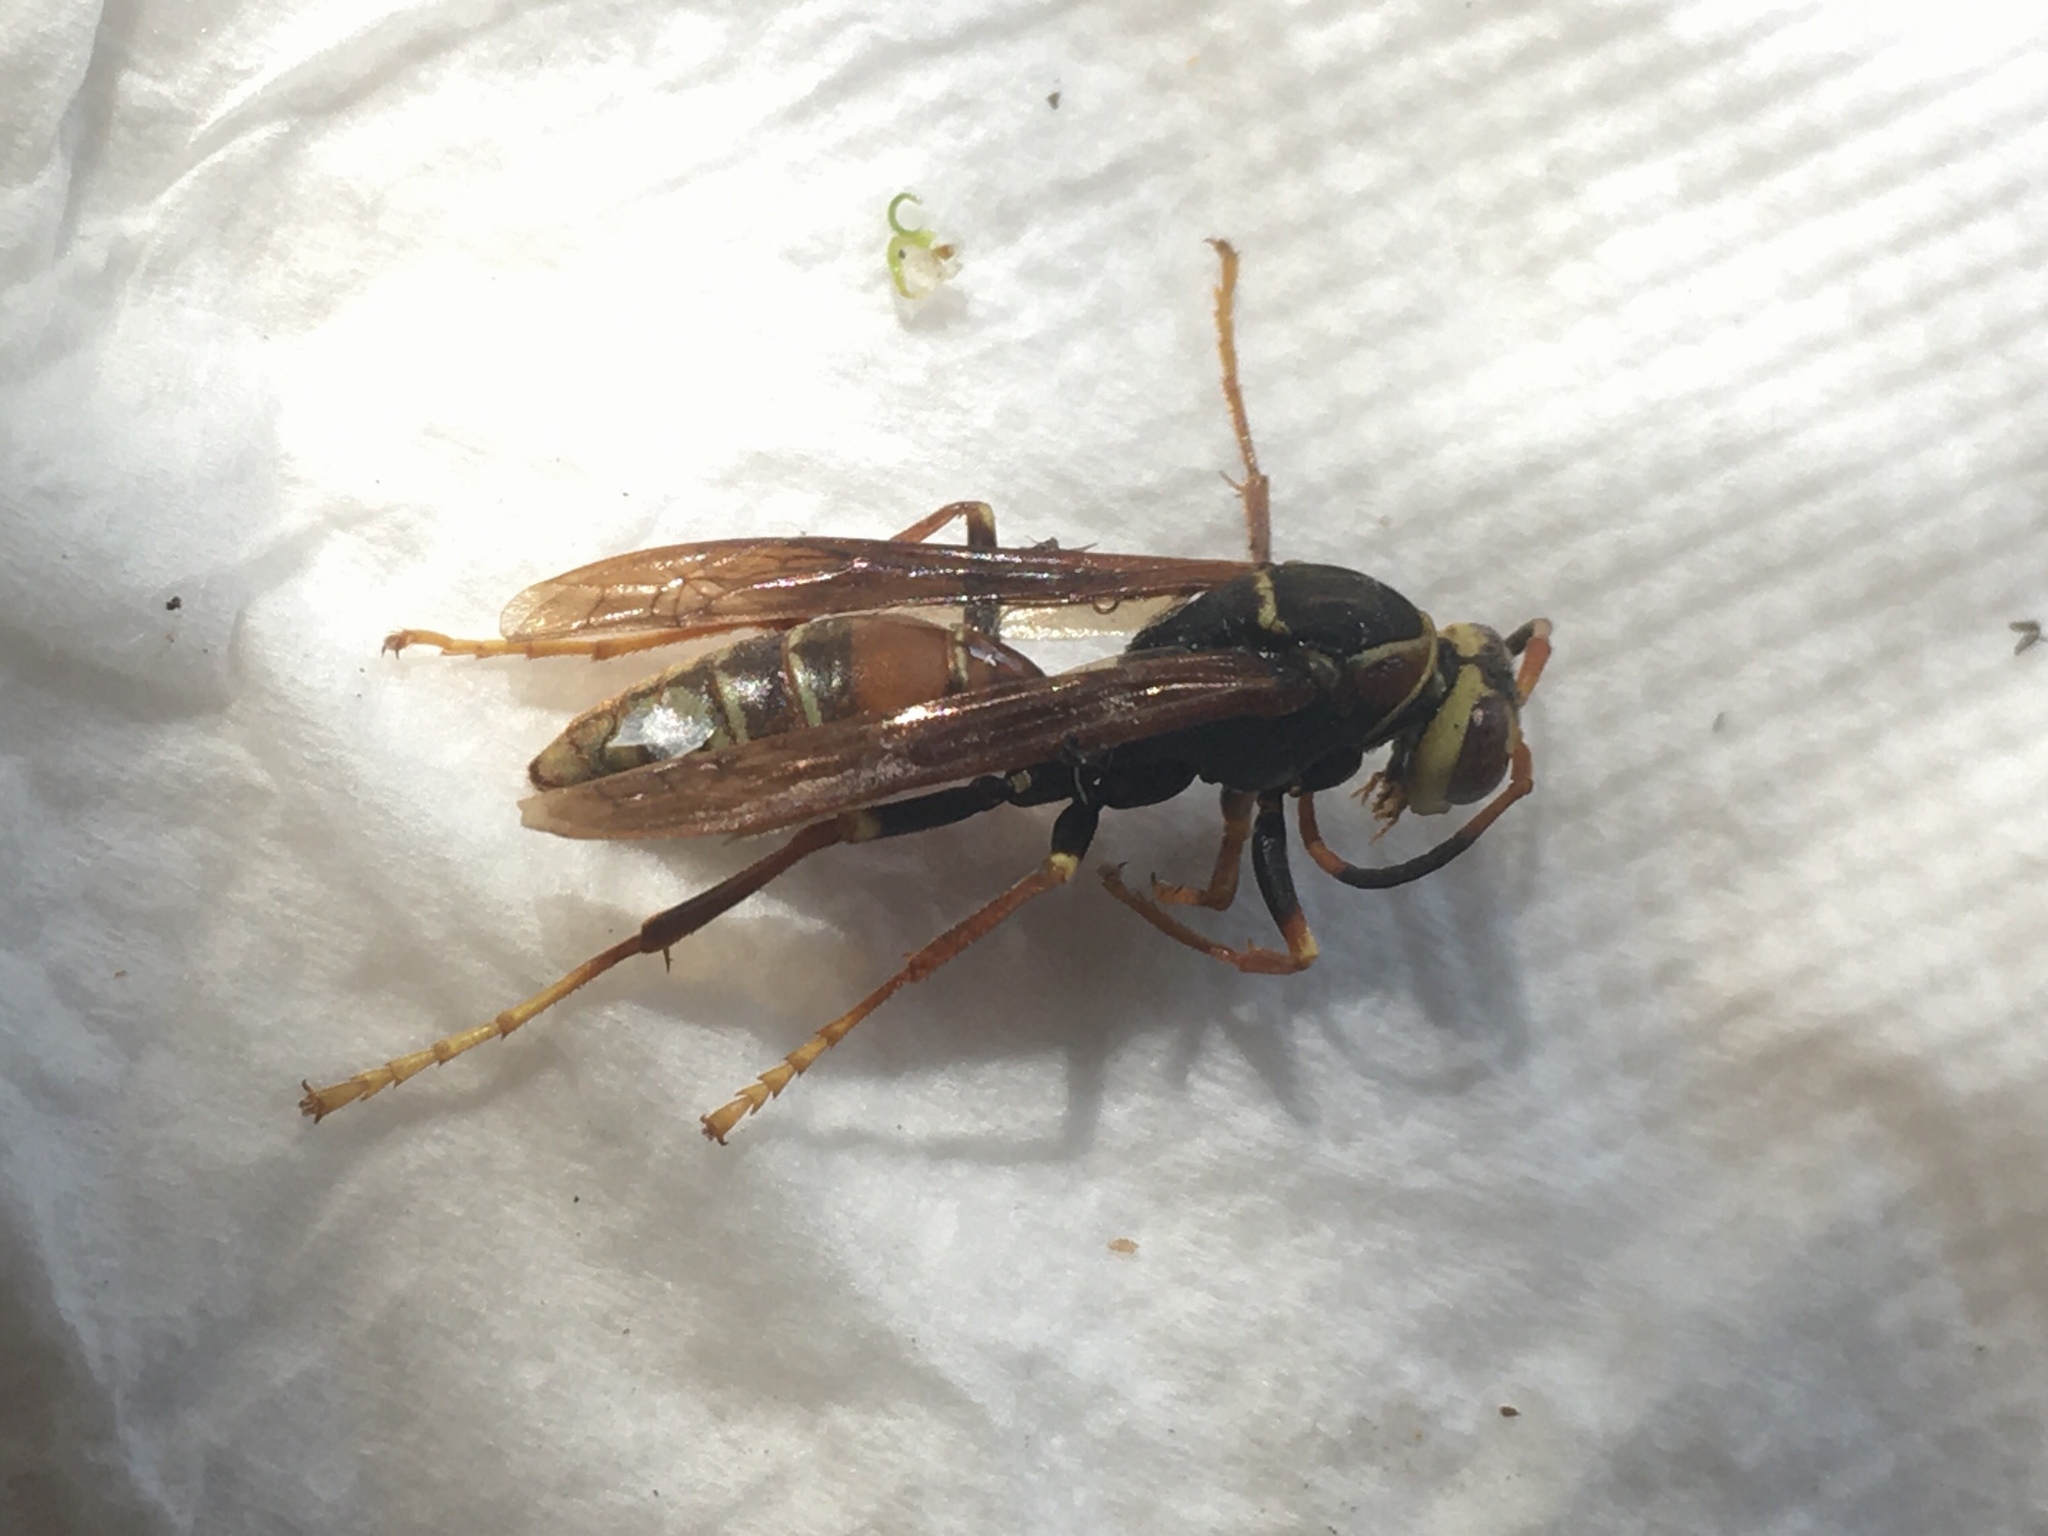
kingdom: Animalia
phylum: Arthropoda
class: Insecta
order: Hymenoptera
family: Eumenidae
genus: Polistes
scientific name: Polistes buyssoni
